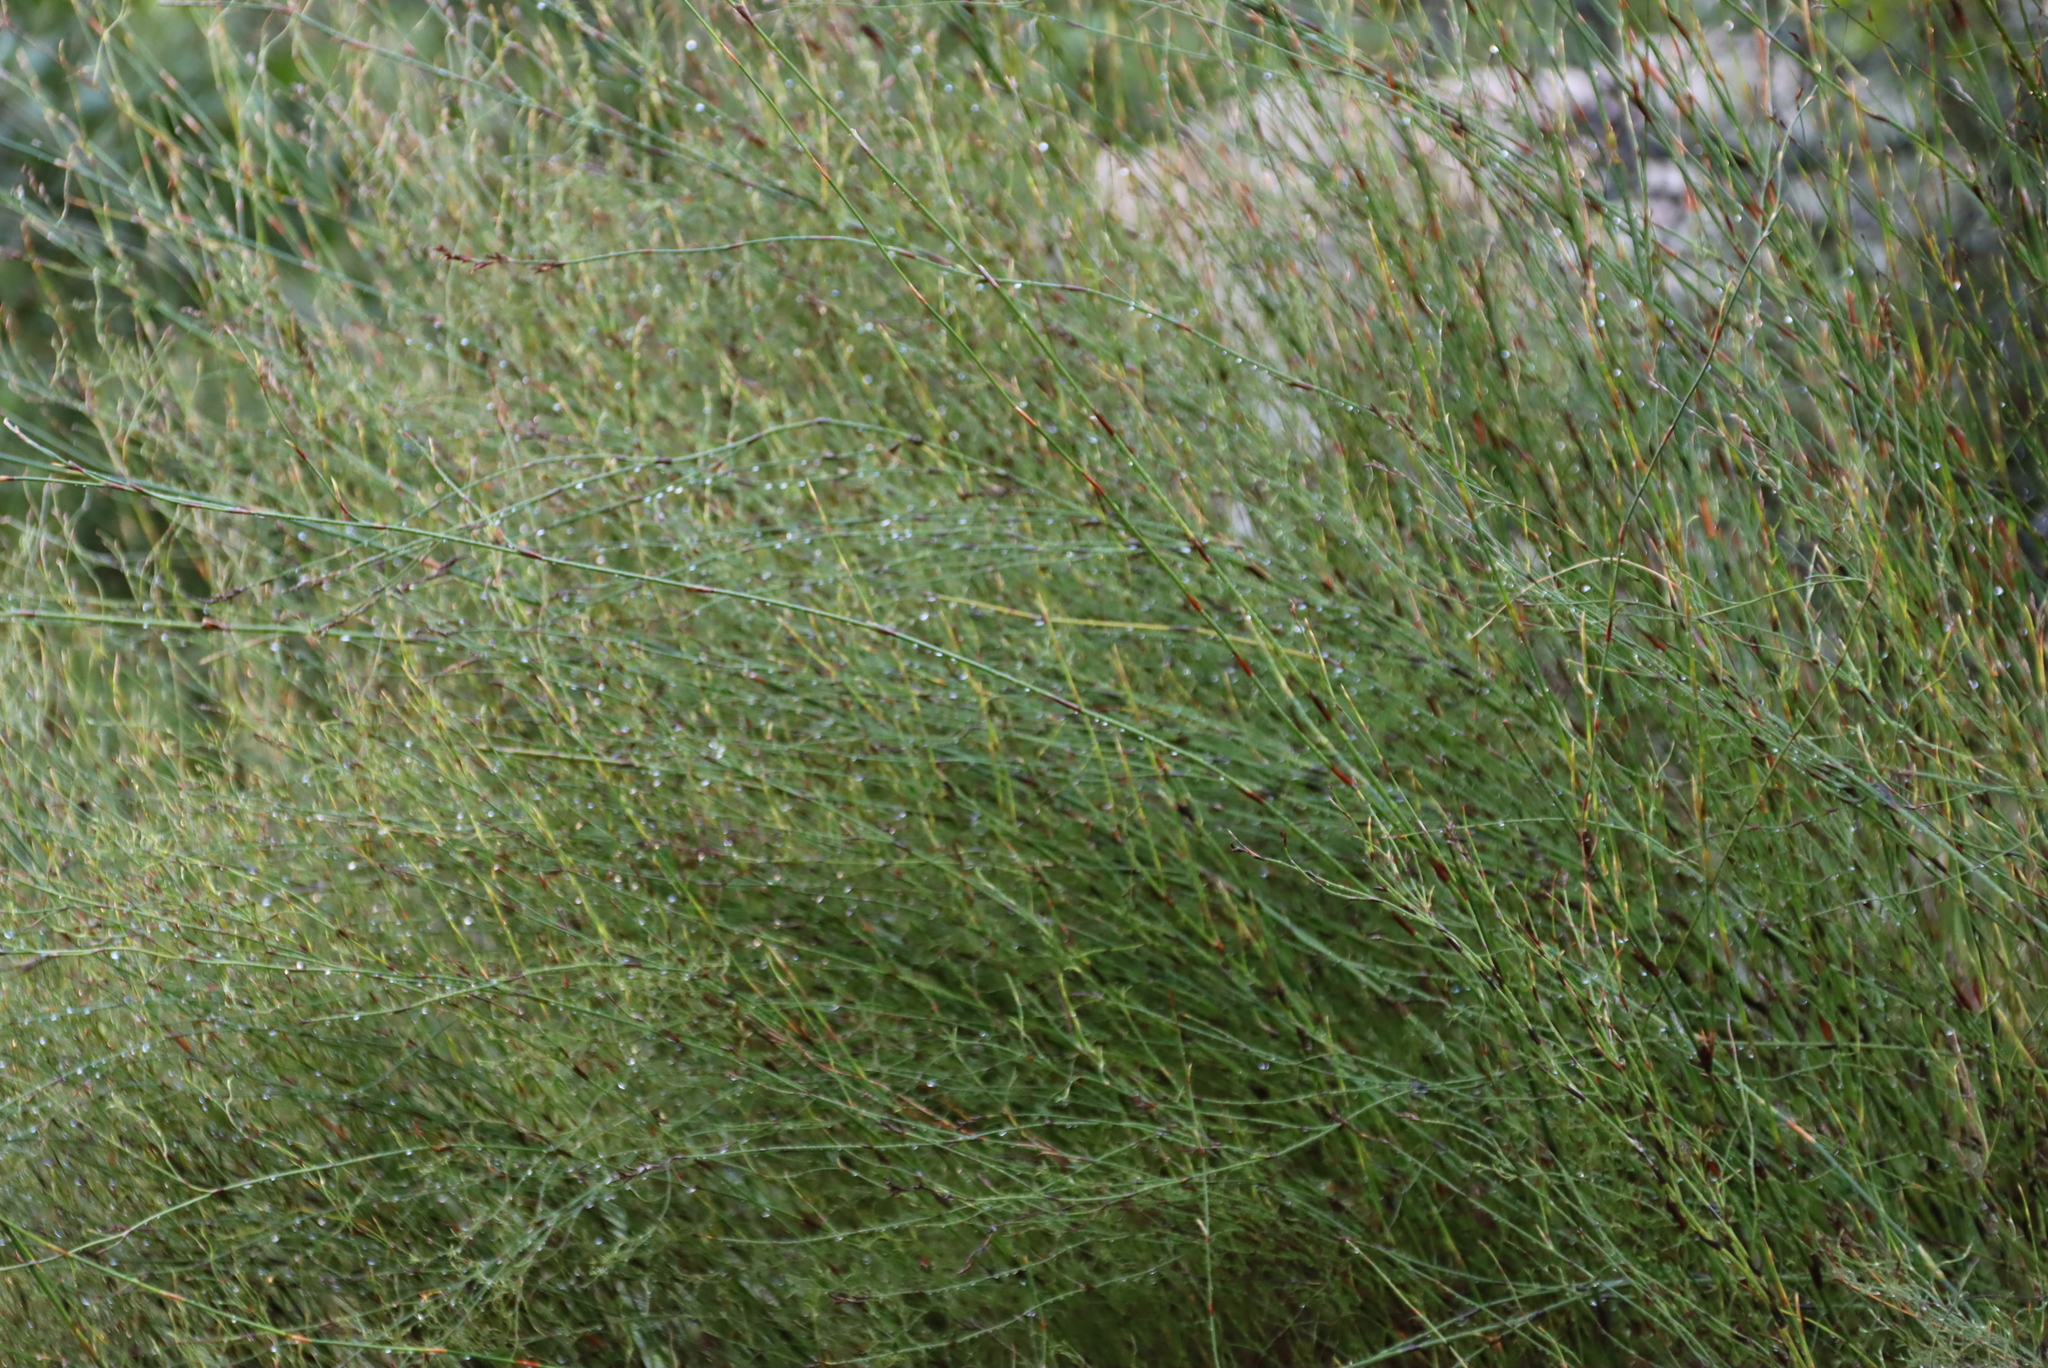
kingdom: Plantae
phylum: Tracheophyta
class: Liliopsida
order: Poales
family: Restionaceae
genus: Restio
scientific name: Restio gaudichaudianus
